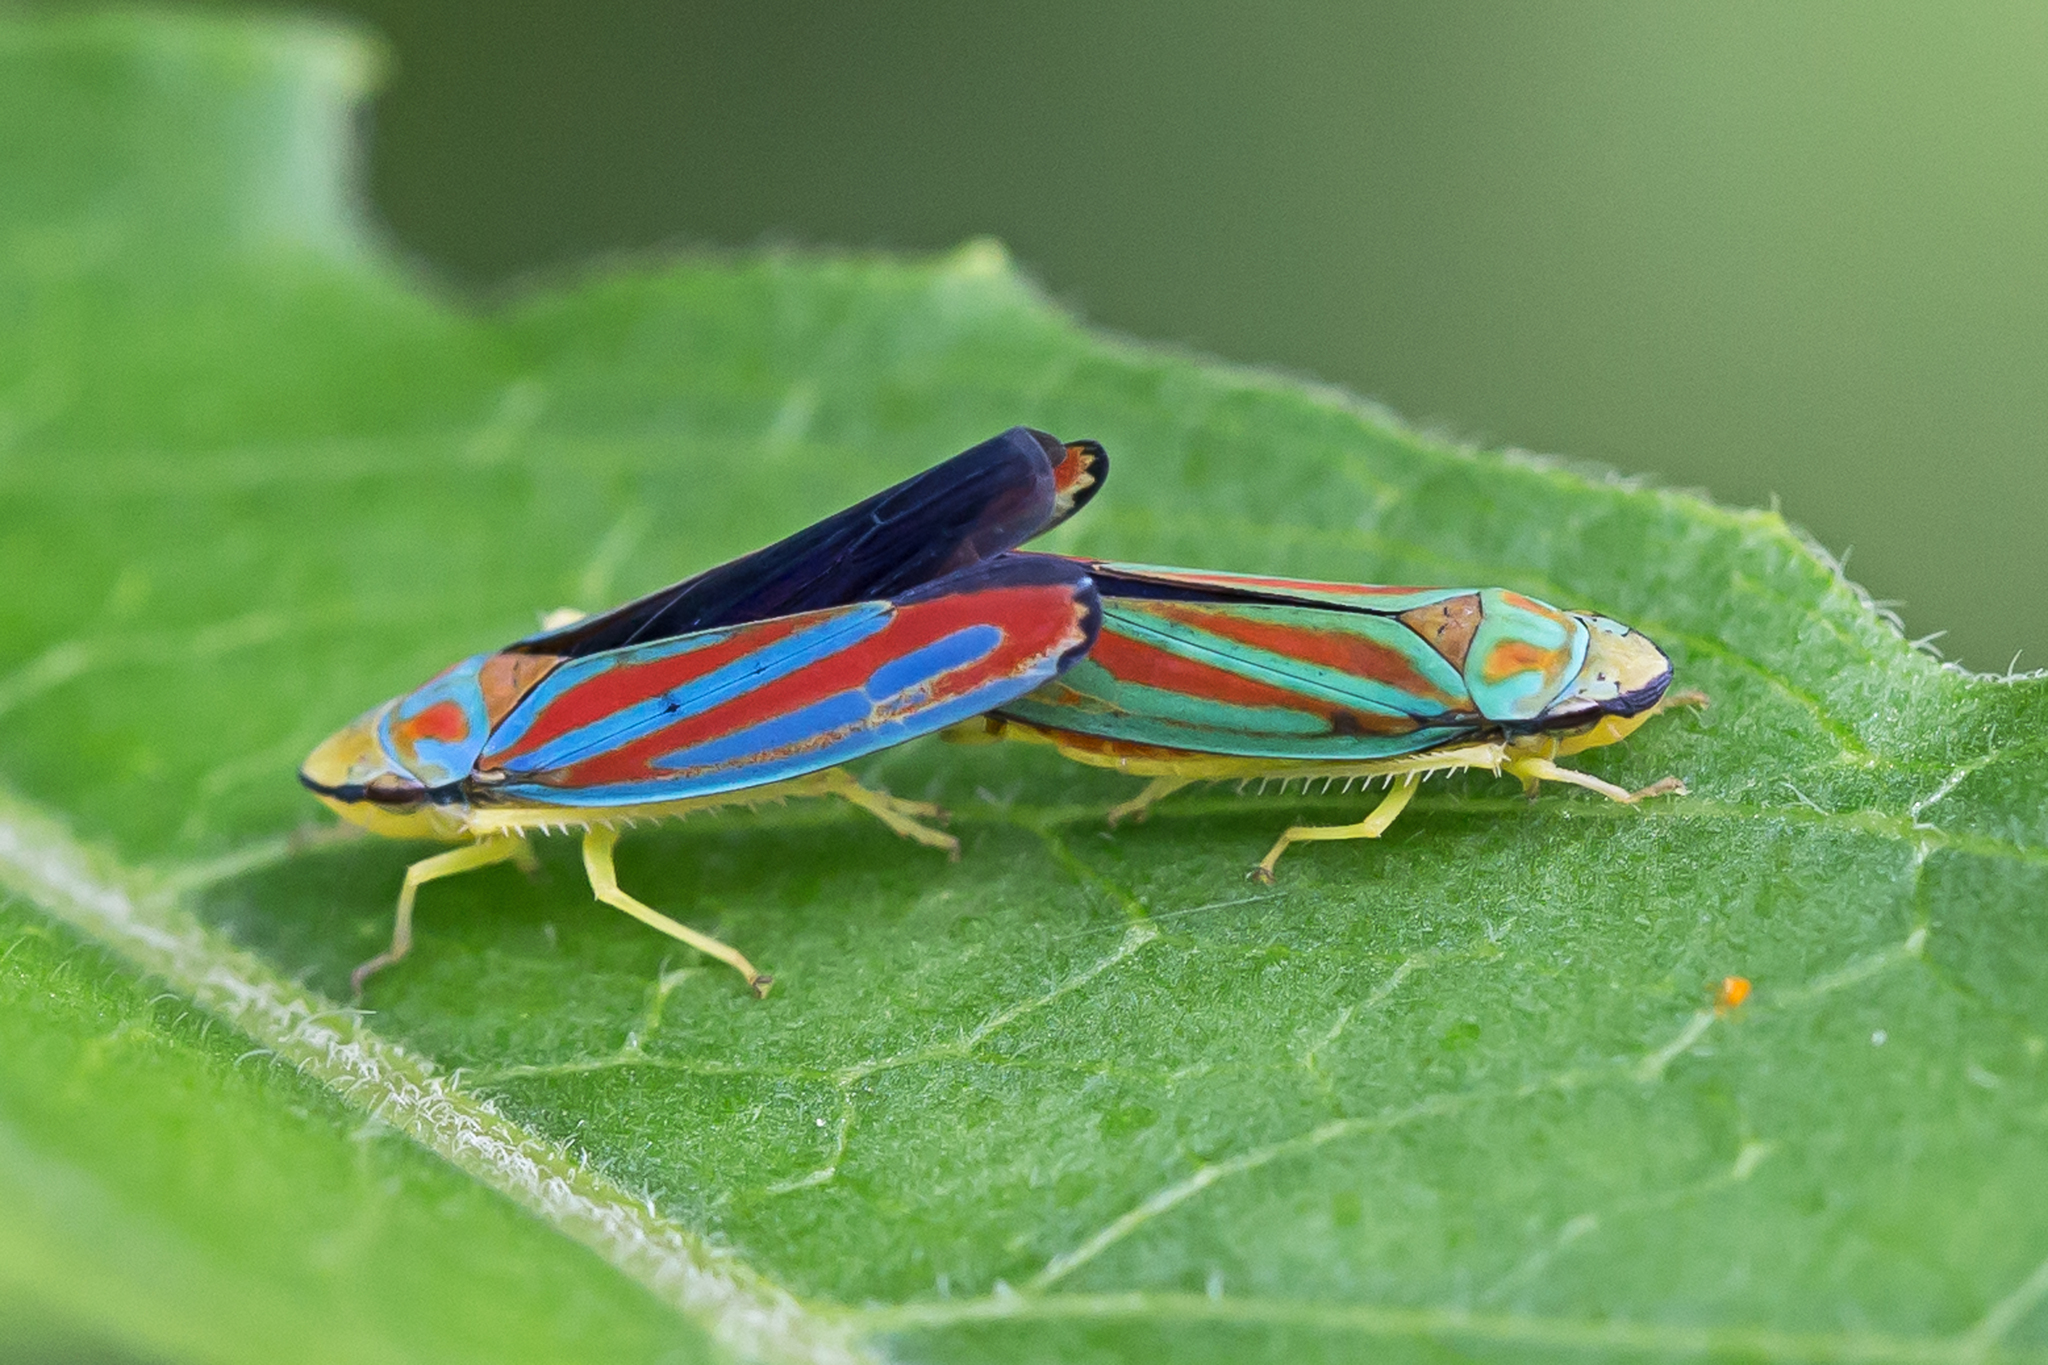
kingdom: Animalia
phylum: Arthropoda
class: Insecta
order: Hemiptera
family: Cicadellidae
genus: Graphocephala
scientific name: Graphocephala coccinea
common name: Candy-striped leafhopper
